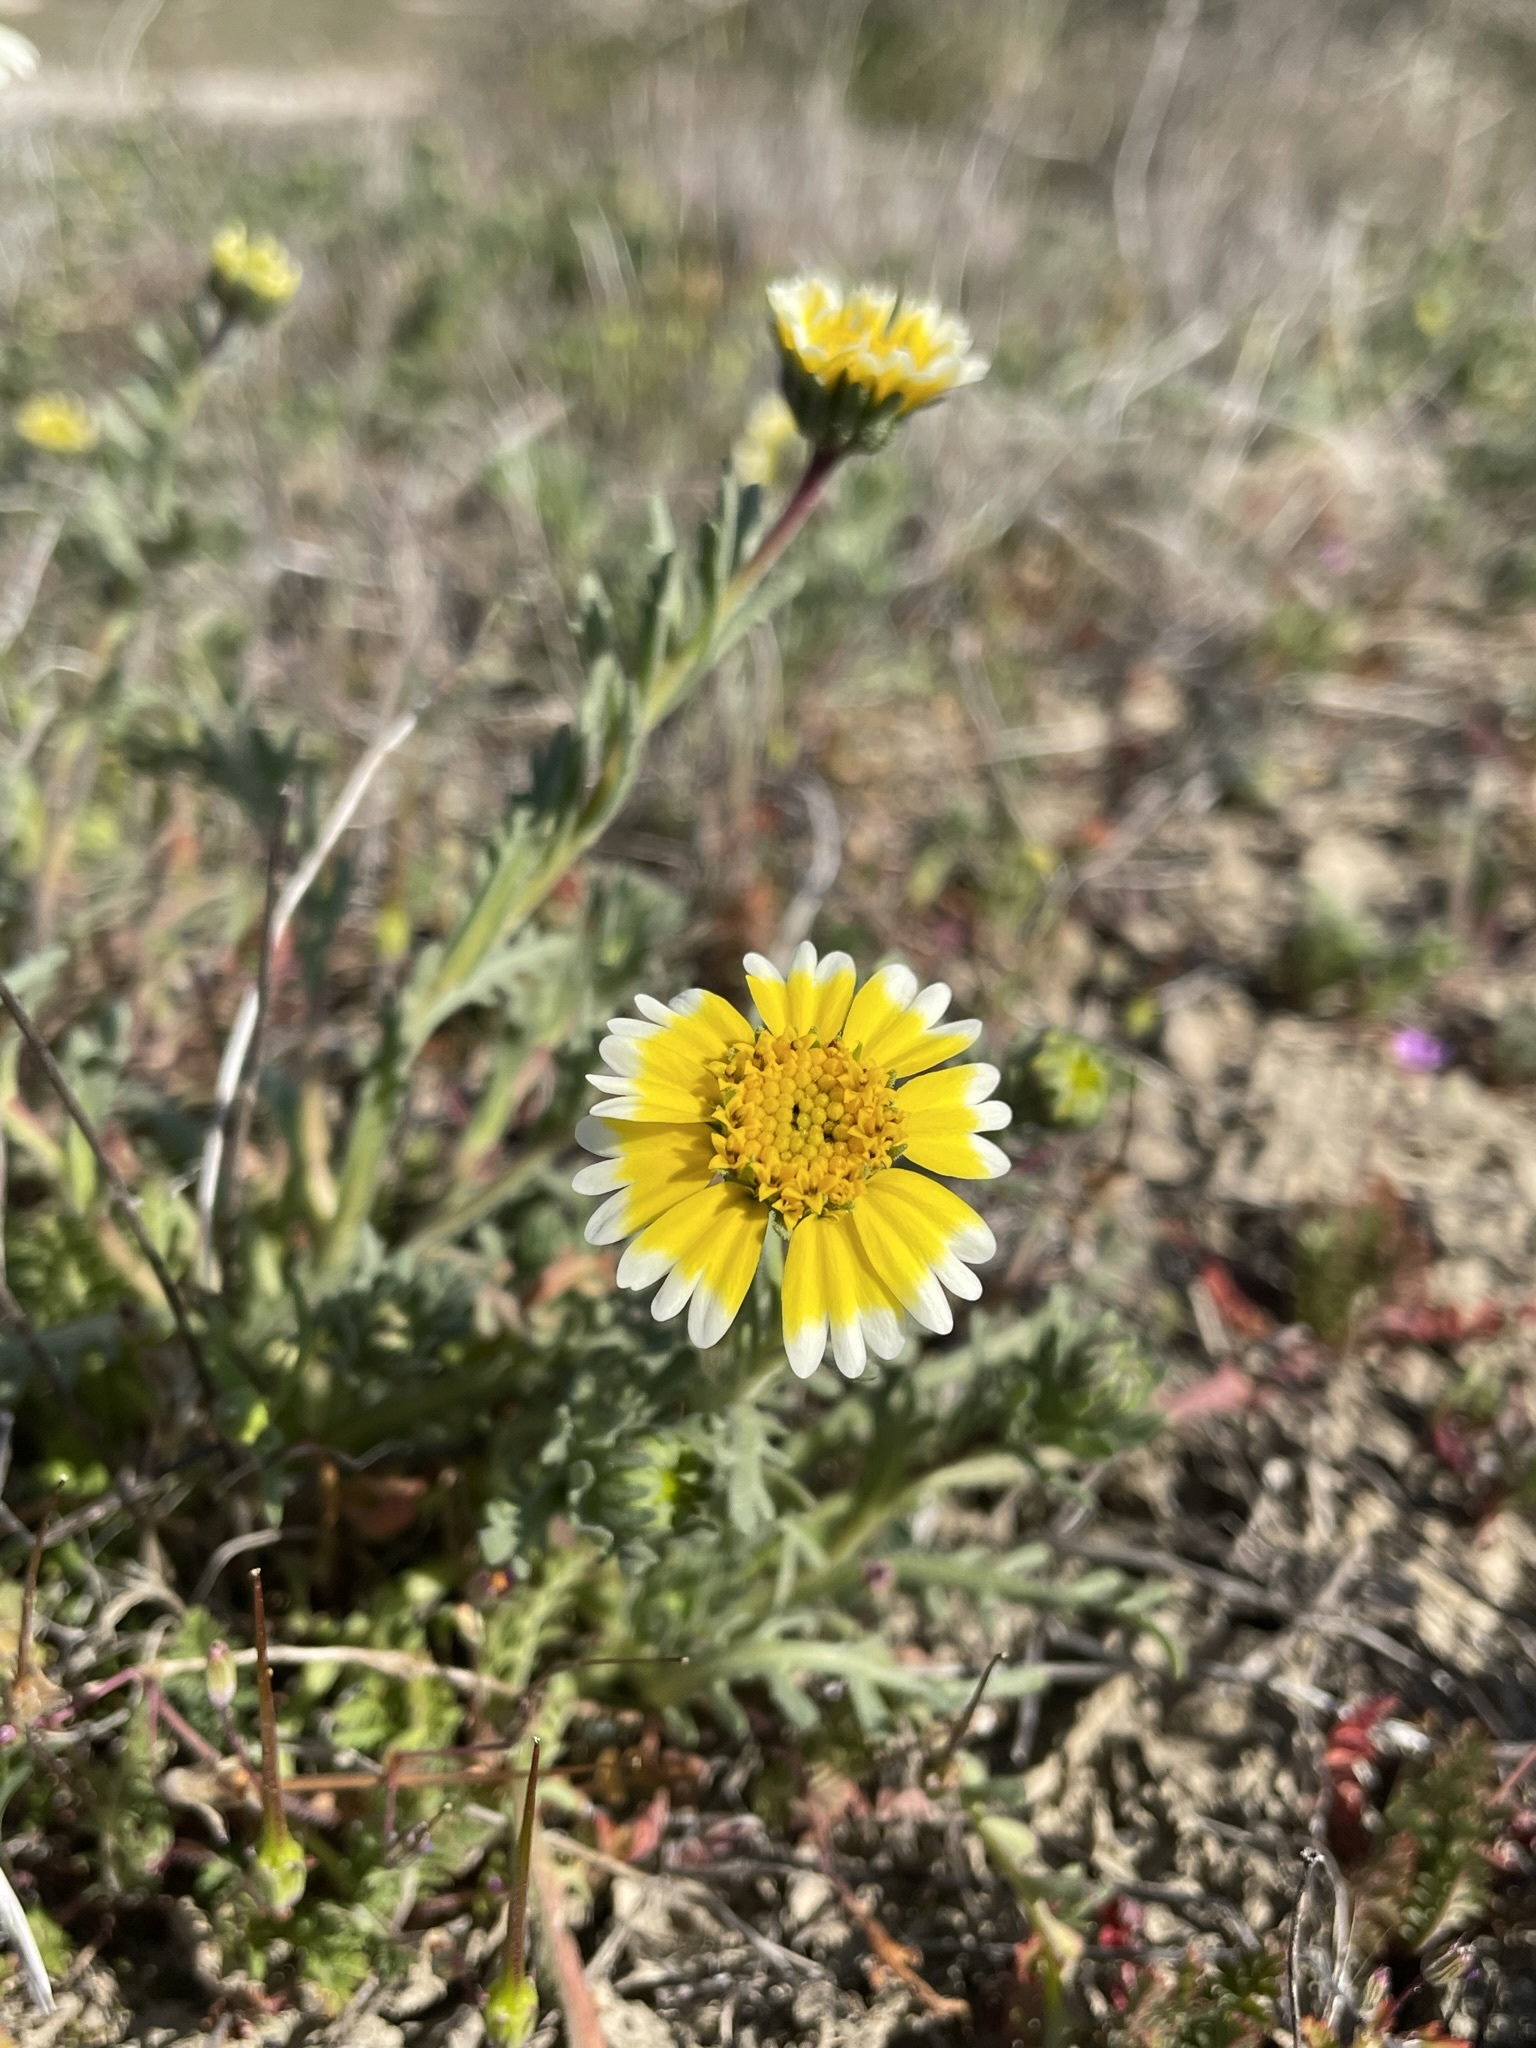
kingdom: Plantae
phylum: Tracheophyta
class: Magnoliopsida
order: Asterales
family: Asteraceae
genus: Layia
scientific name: Layia munzii
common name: Munz's tidy-tips
